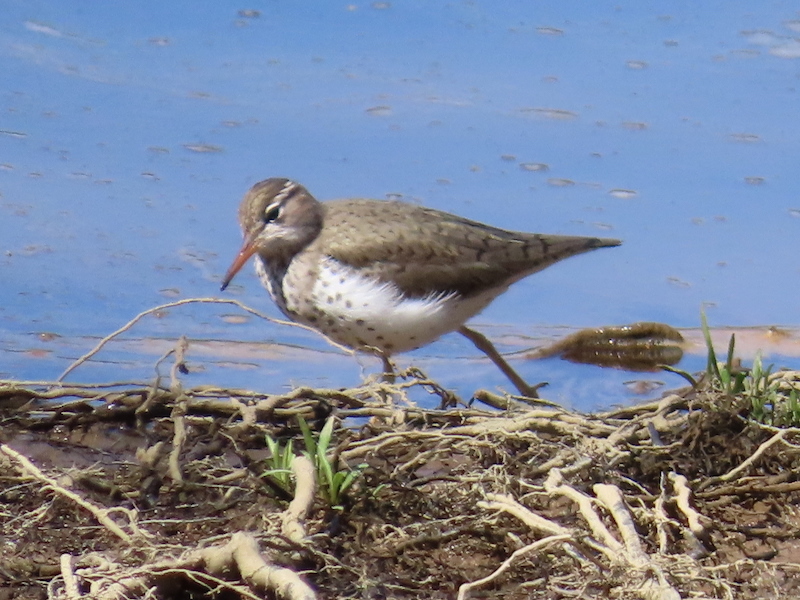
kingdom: Animalia
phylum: Chordata
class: Aves
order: Charadriiformes
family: Scolopacidae
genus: Actitis
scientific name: Actitis macularius
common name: Spotted sandpiper
